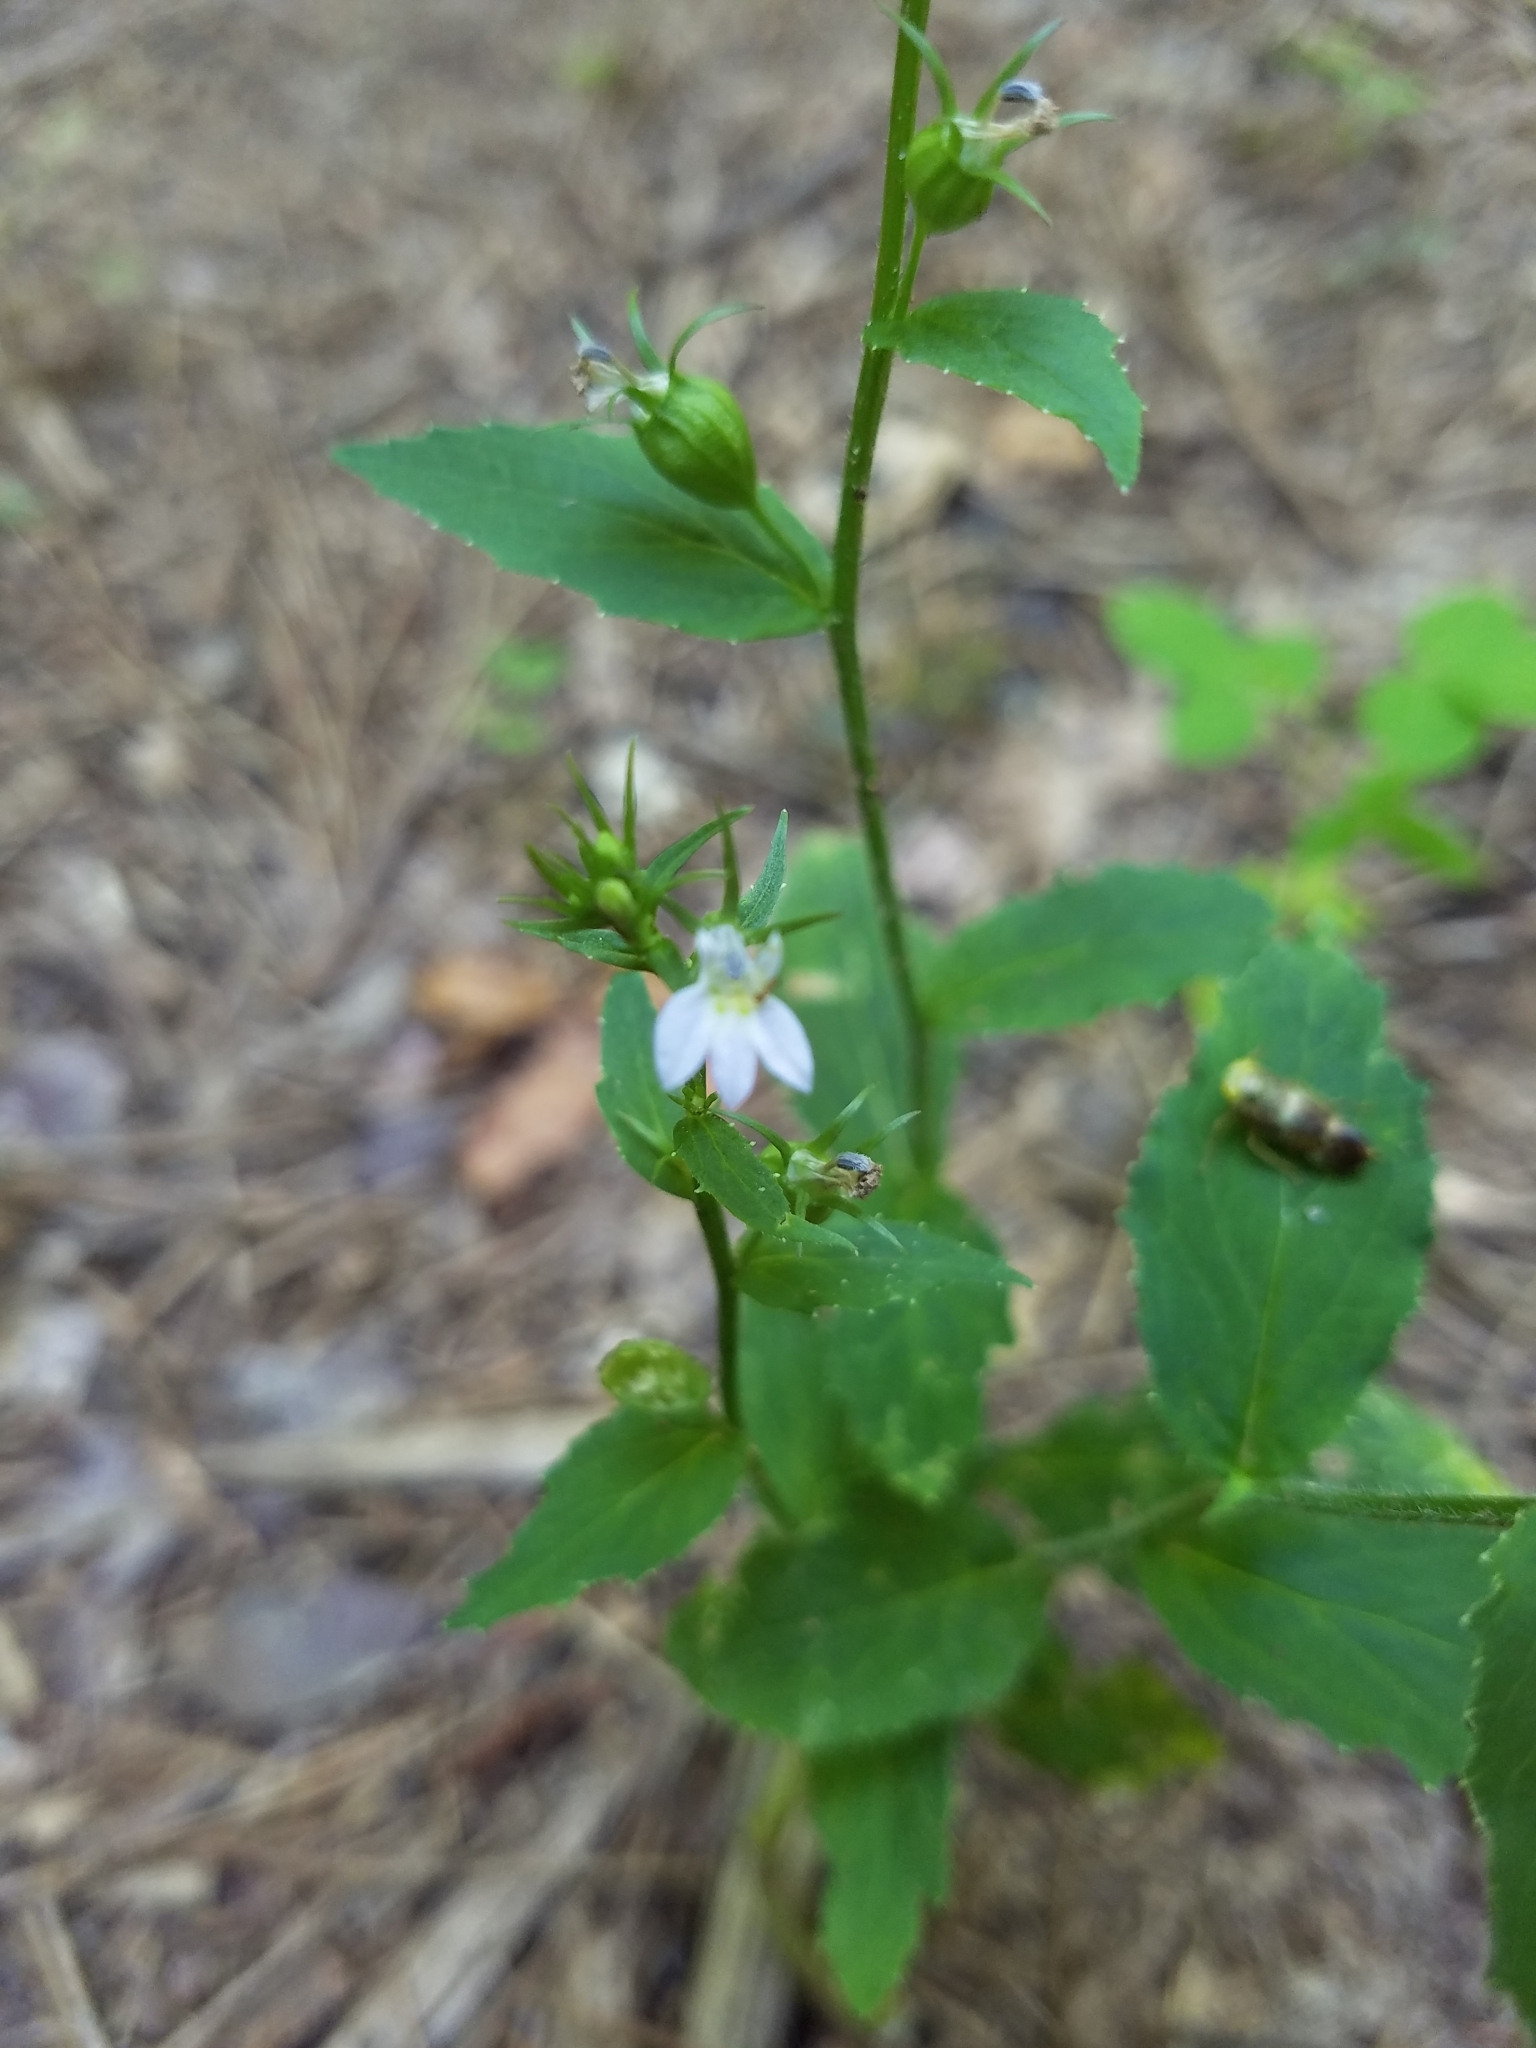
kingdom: Plantae
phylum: Tracheophyta
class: Magnoliopsida
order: Asterales
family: Campanulaceae
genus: Lobelia
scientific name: Lobelia inflata
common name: Indian tobacco
